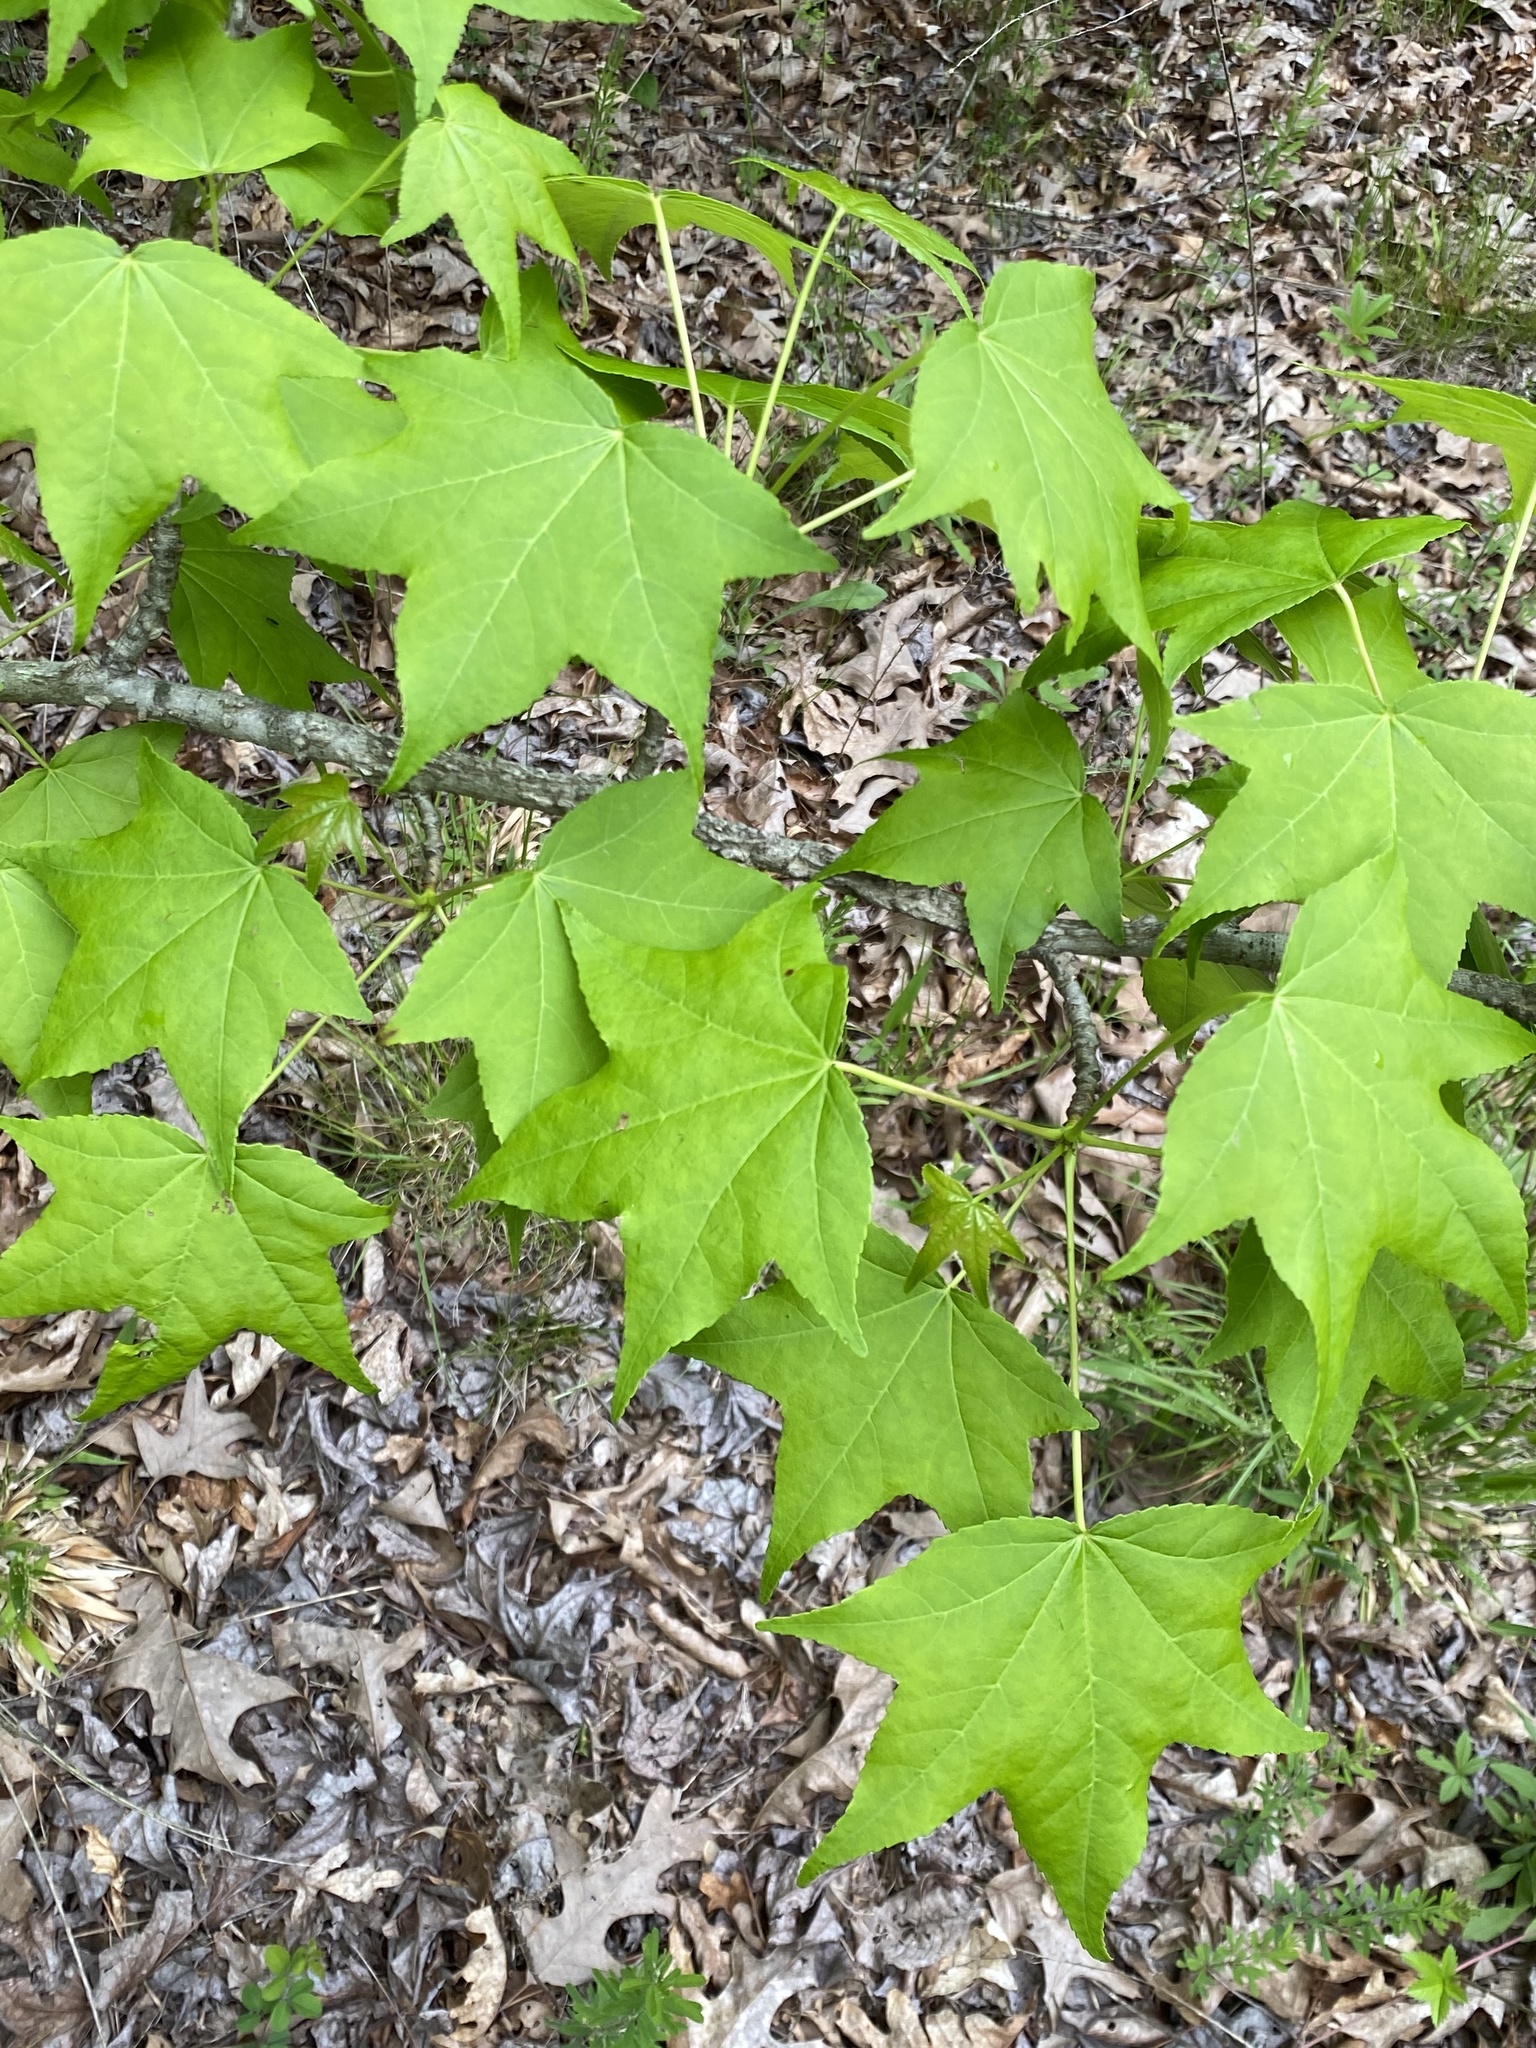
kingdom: Plantae
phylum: Tracheophyta
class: Magnoliopsida
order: Saxifragales
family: Altingiaceae
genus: Liquidambar
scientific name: Liquidambar styraciflua
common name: Sweet gum
